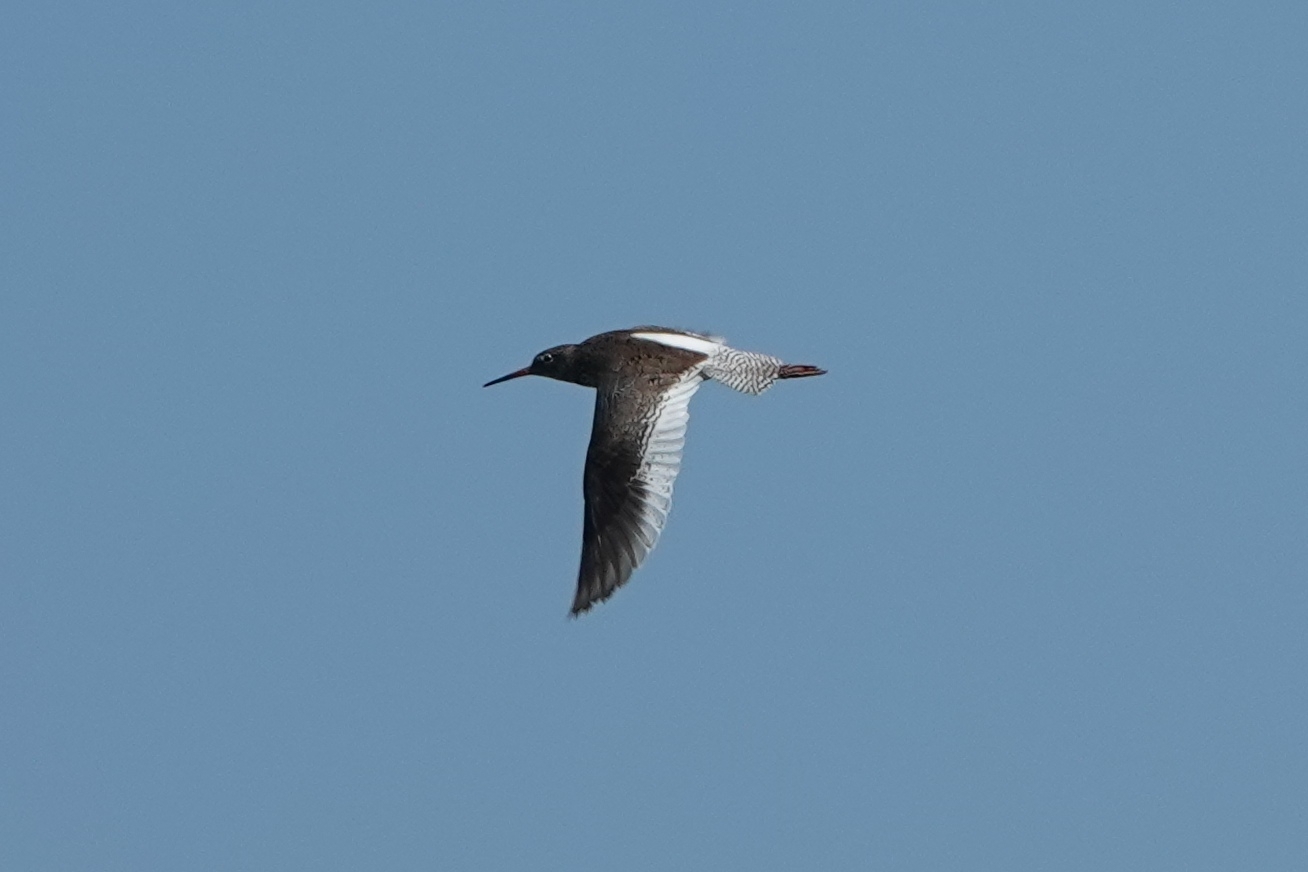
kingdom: Animalia
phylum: Chordata
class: Aves
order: Charadriiformes
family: Scolopacidae
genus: Tringa
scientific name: Tringa totanus
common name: Common redshank
